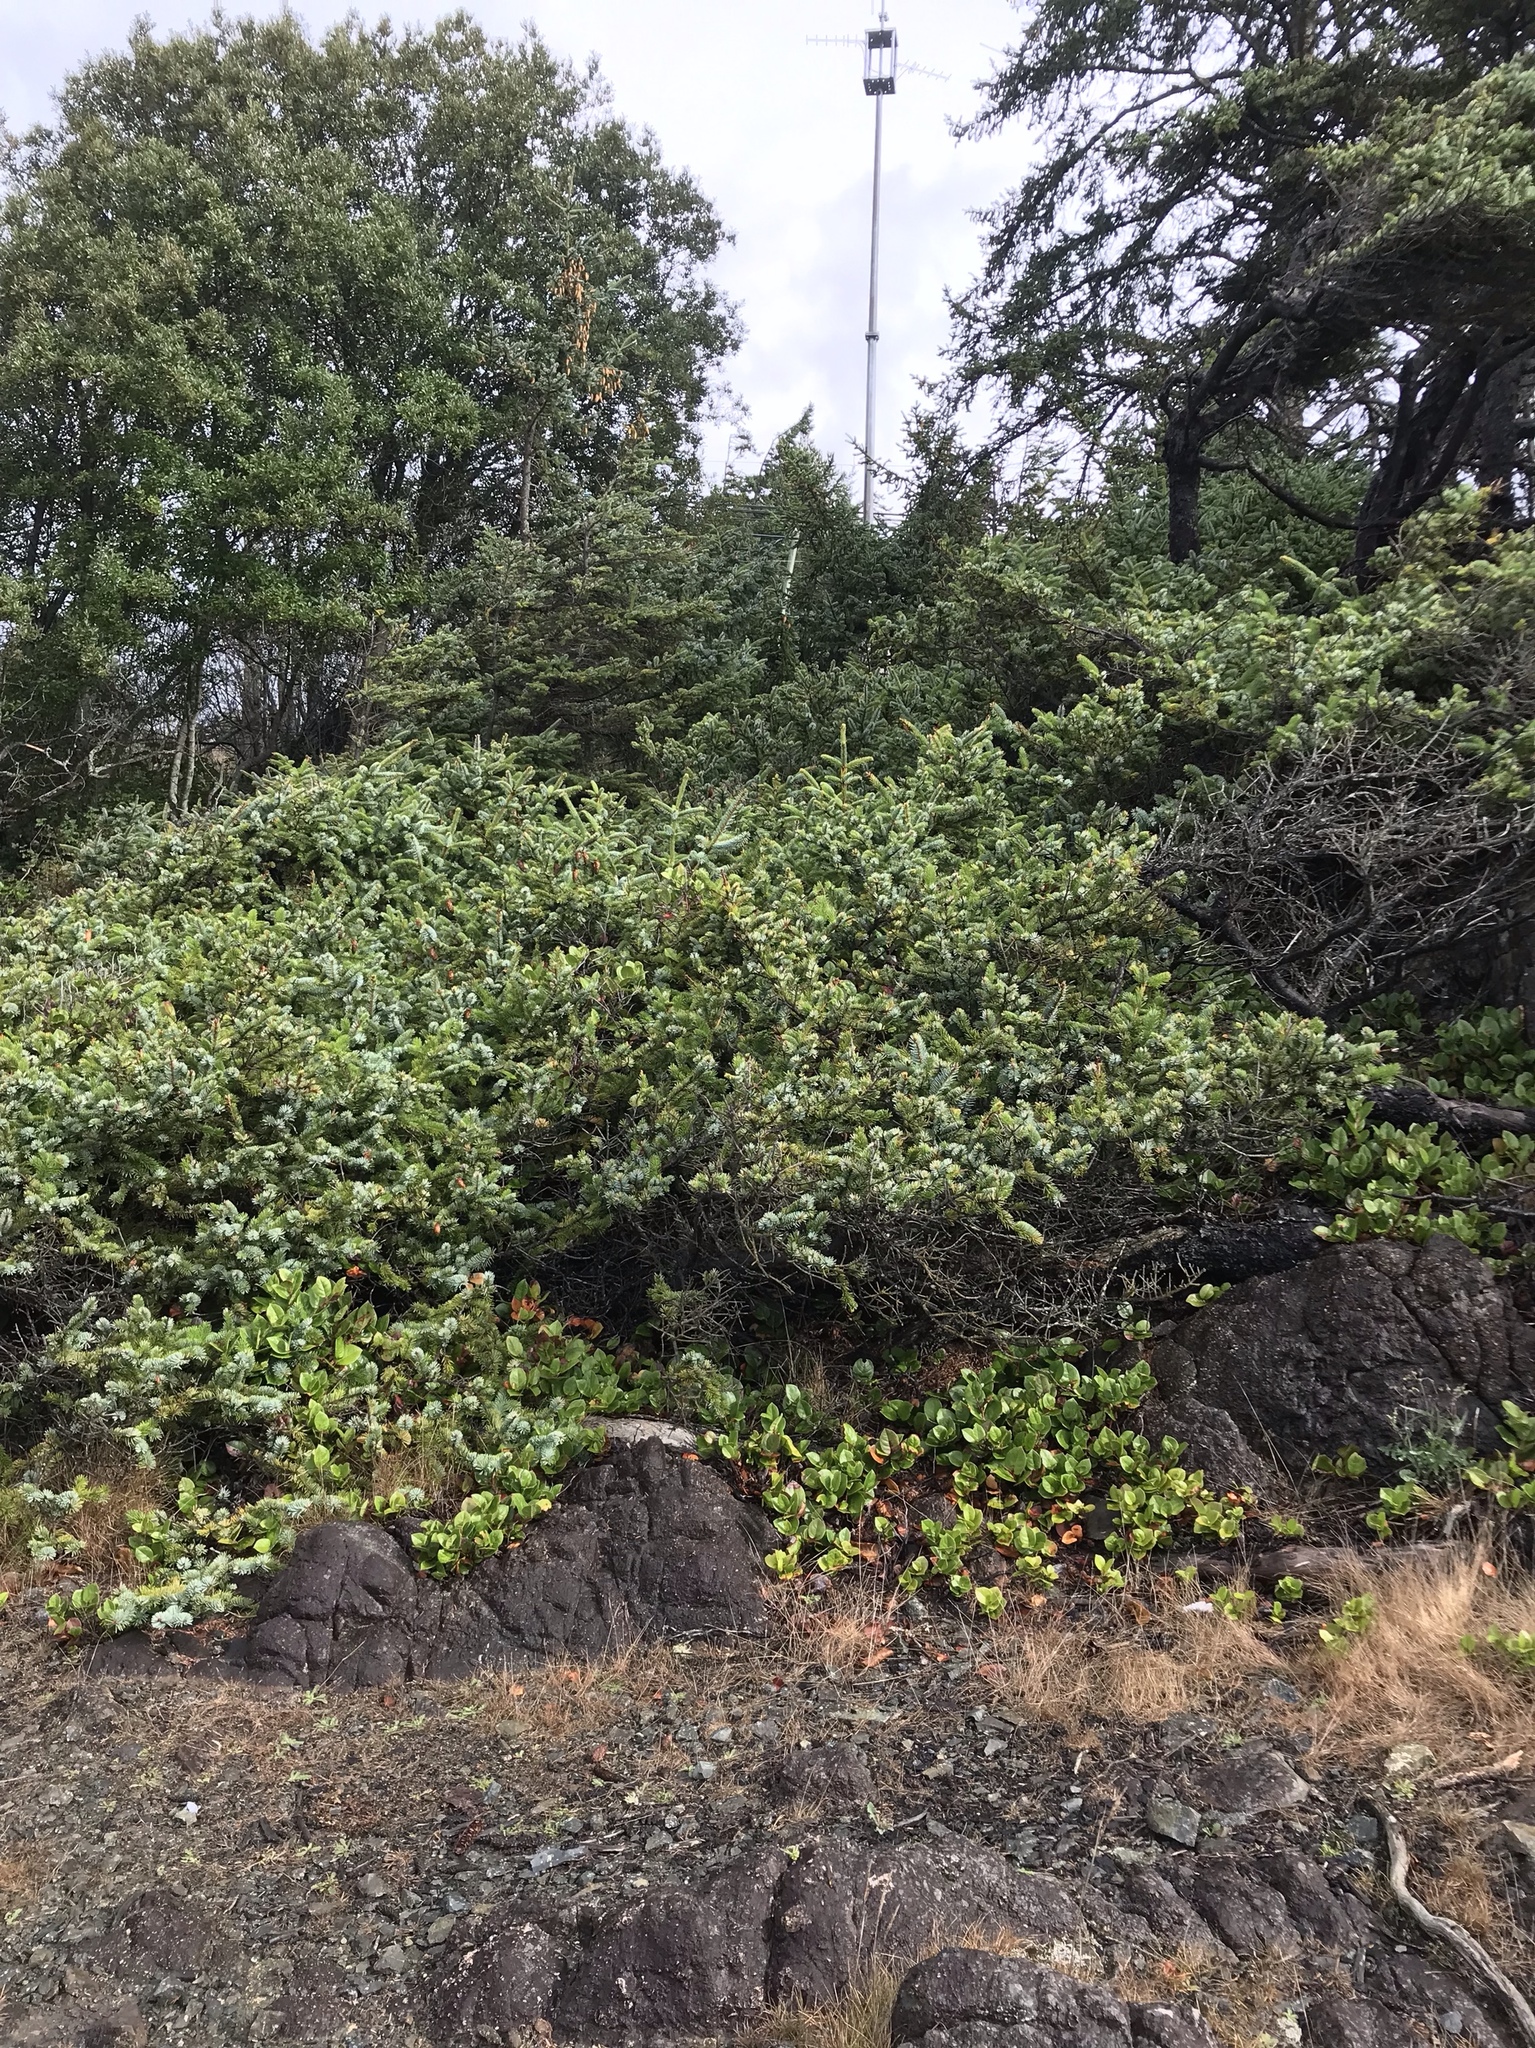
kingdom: Plantae
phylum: Tracheophyta
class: Pinopsida
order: Pinales
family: Pinaceae
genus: Picea
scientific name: Picea sitchensis
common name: Sitka spruce
